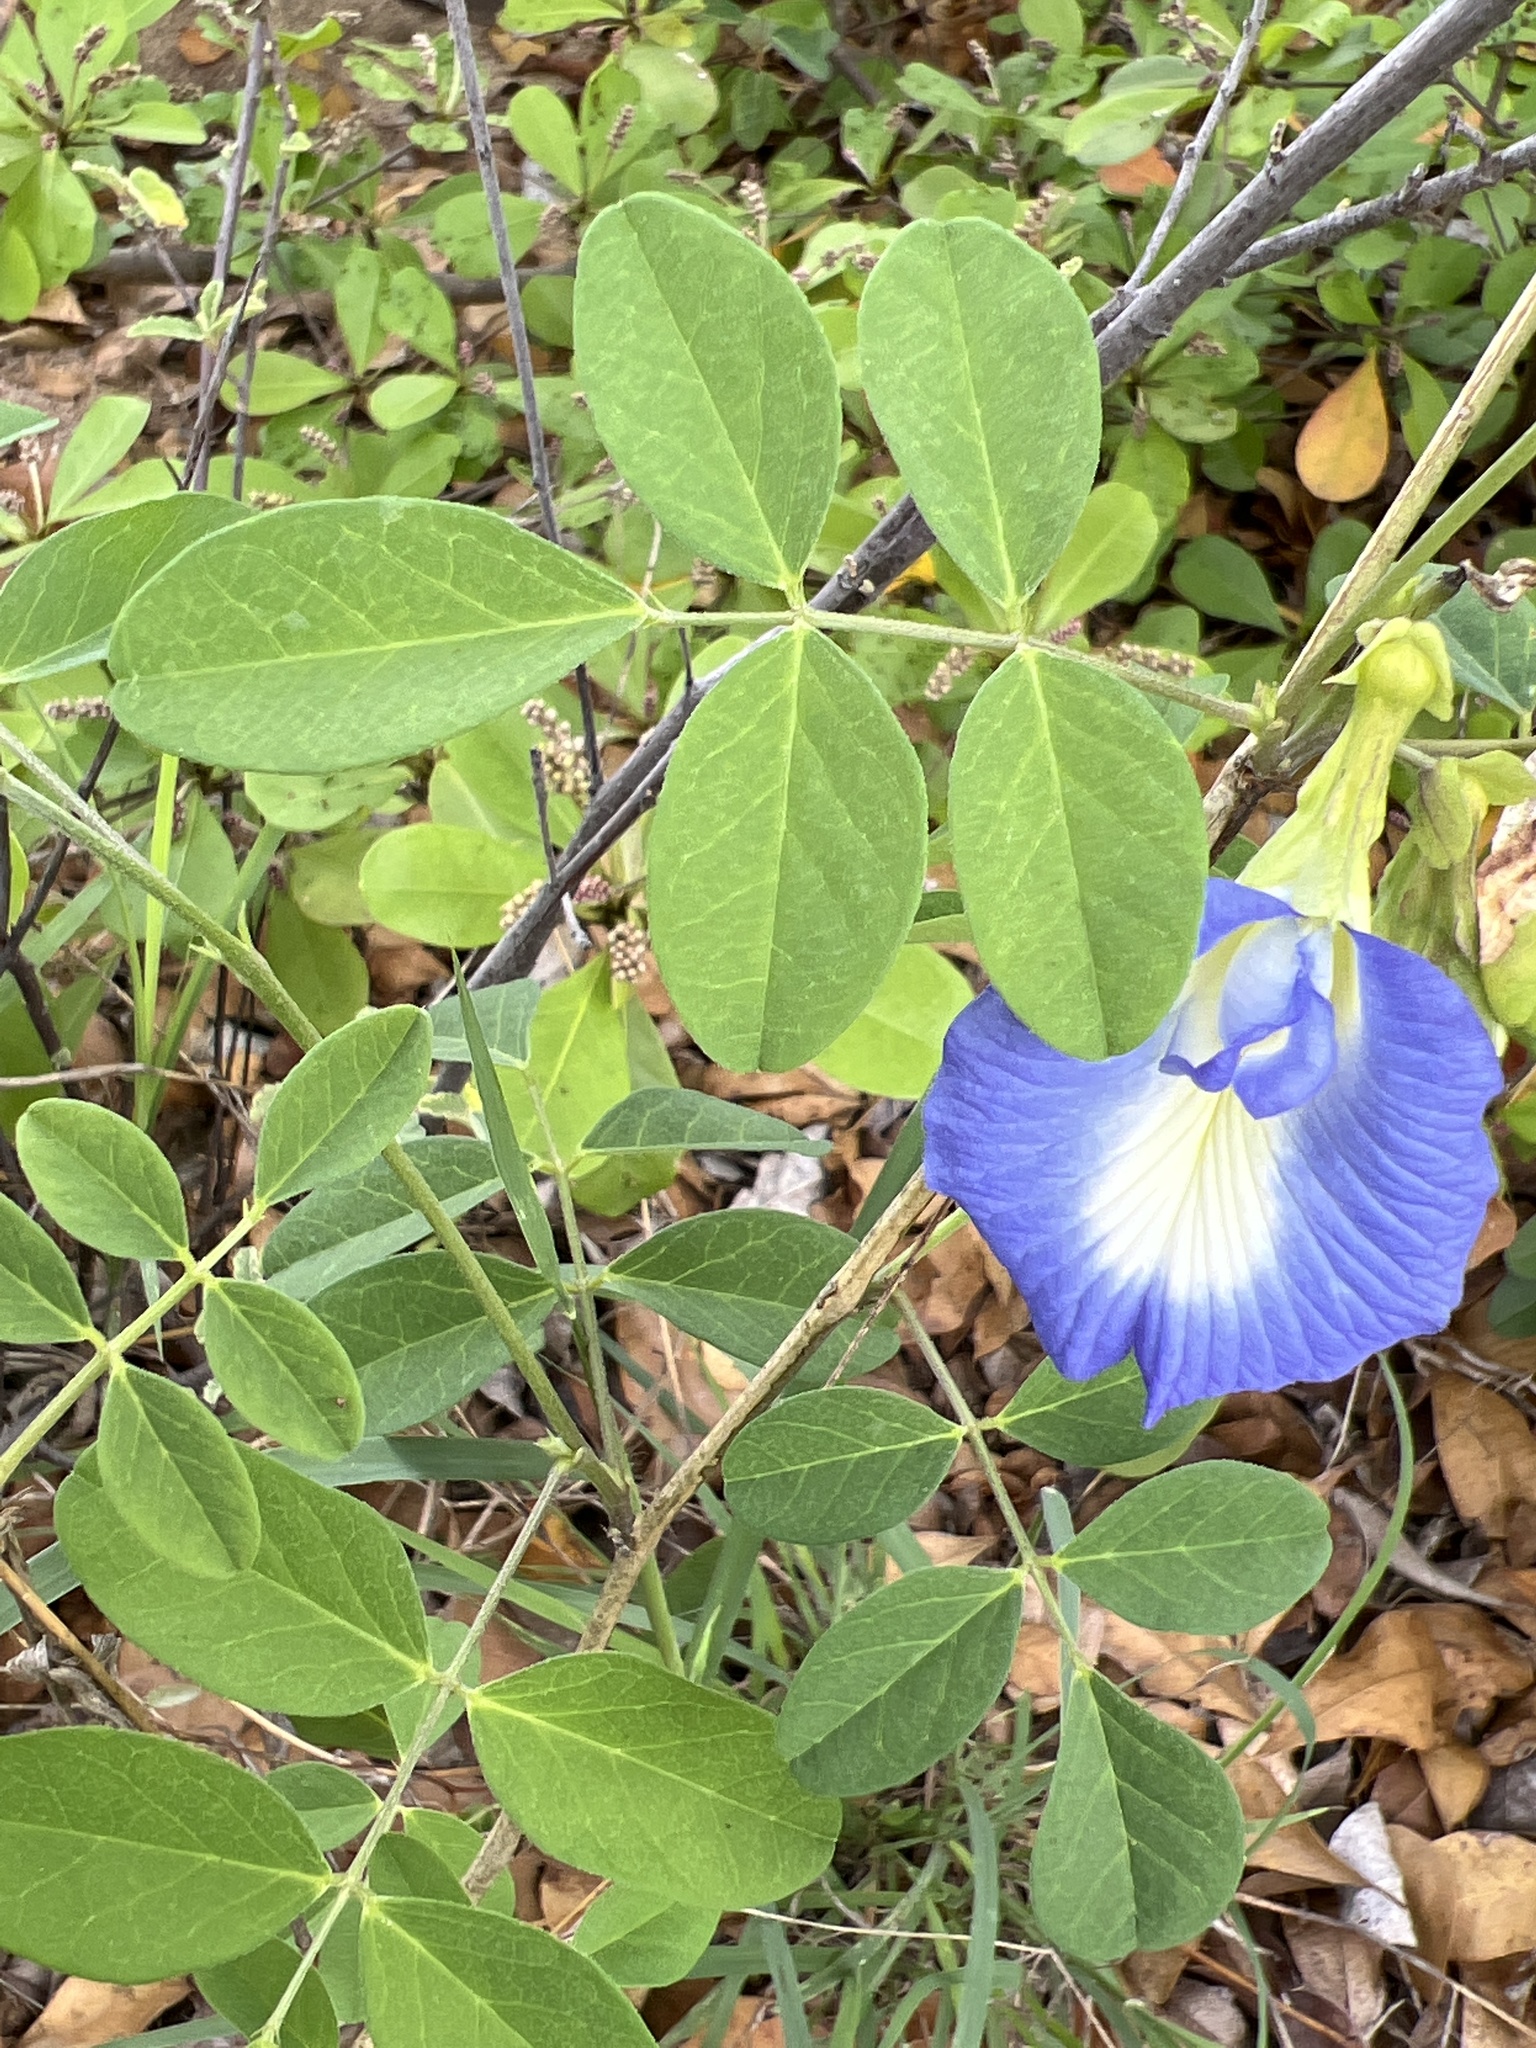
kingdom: Plantae
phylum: Tracheophyta
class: Magnoliopsida
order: Fabales
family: Fabaceae
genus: Clitoria
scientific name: Clitoria ternatea
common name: Asian pigeonwings
